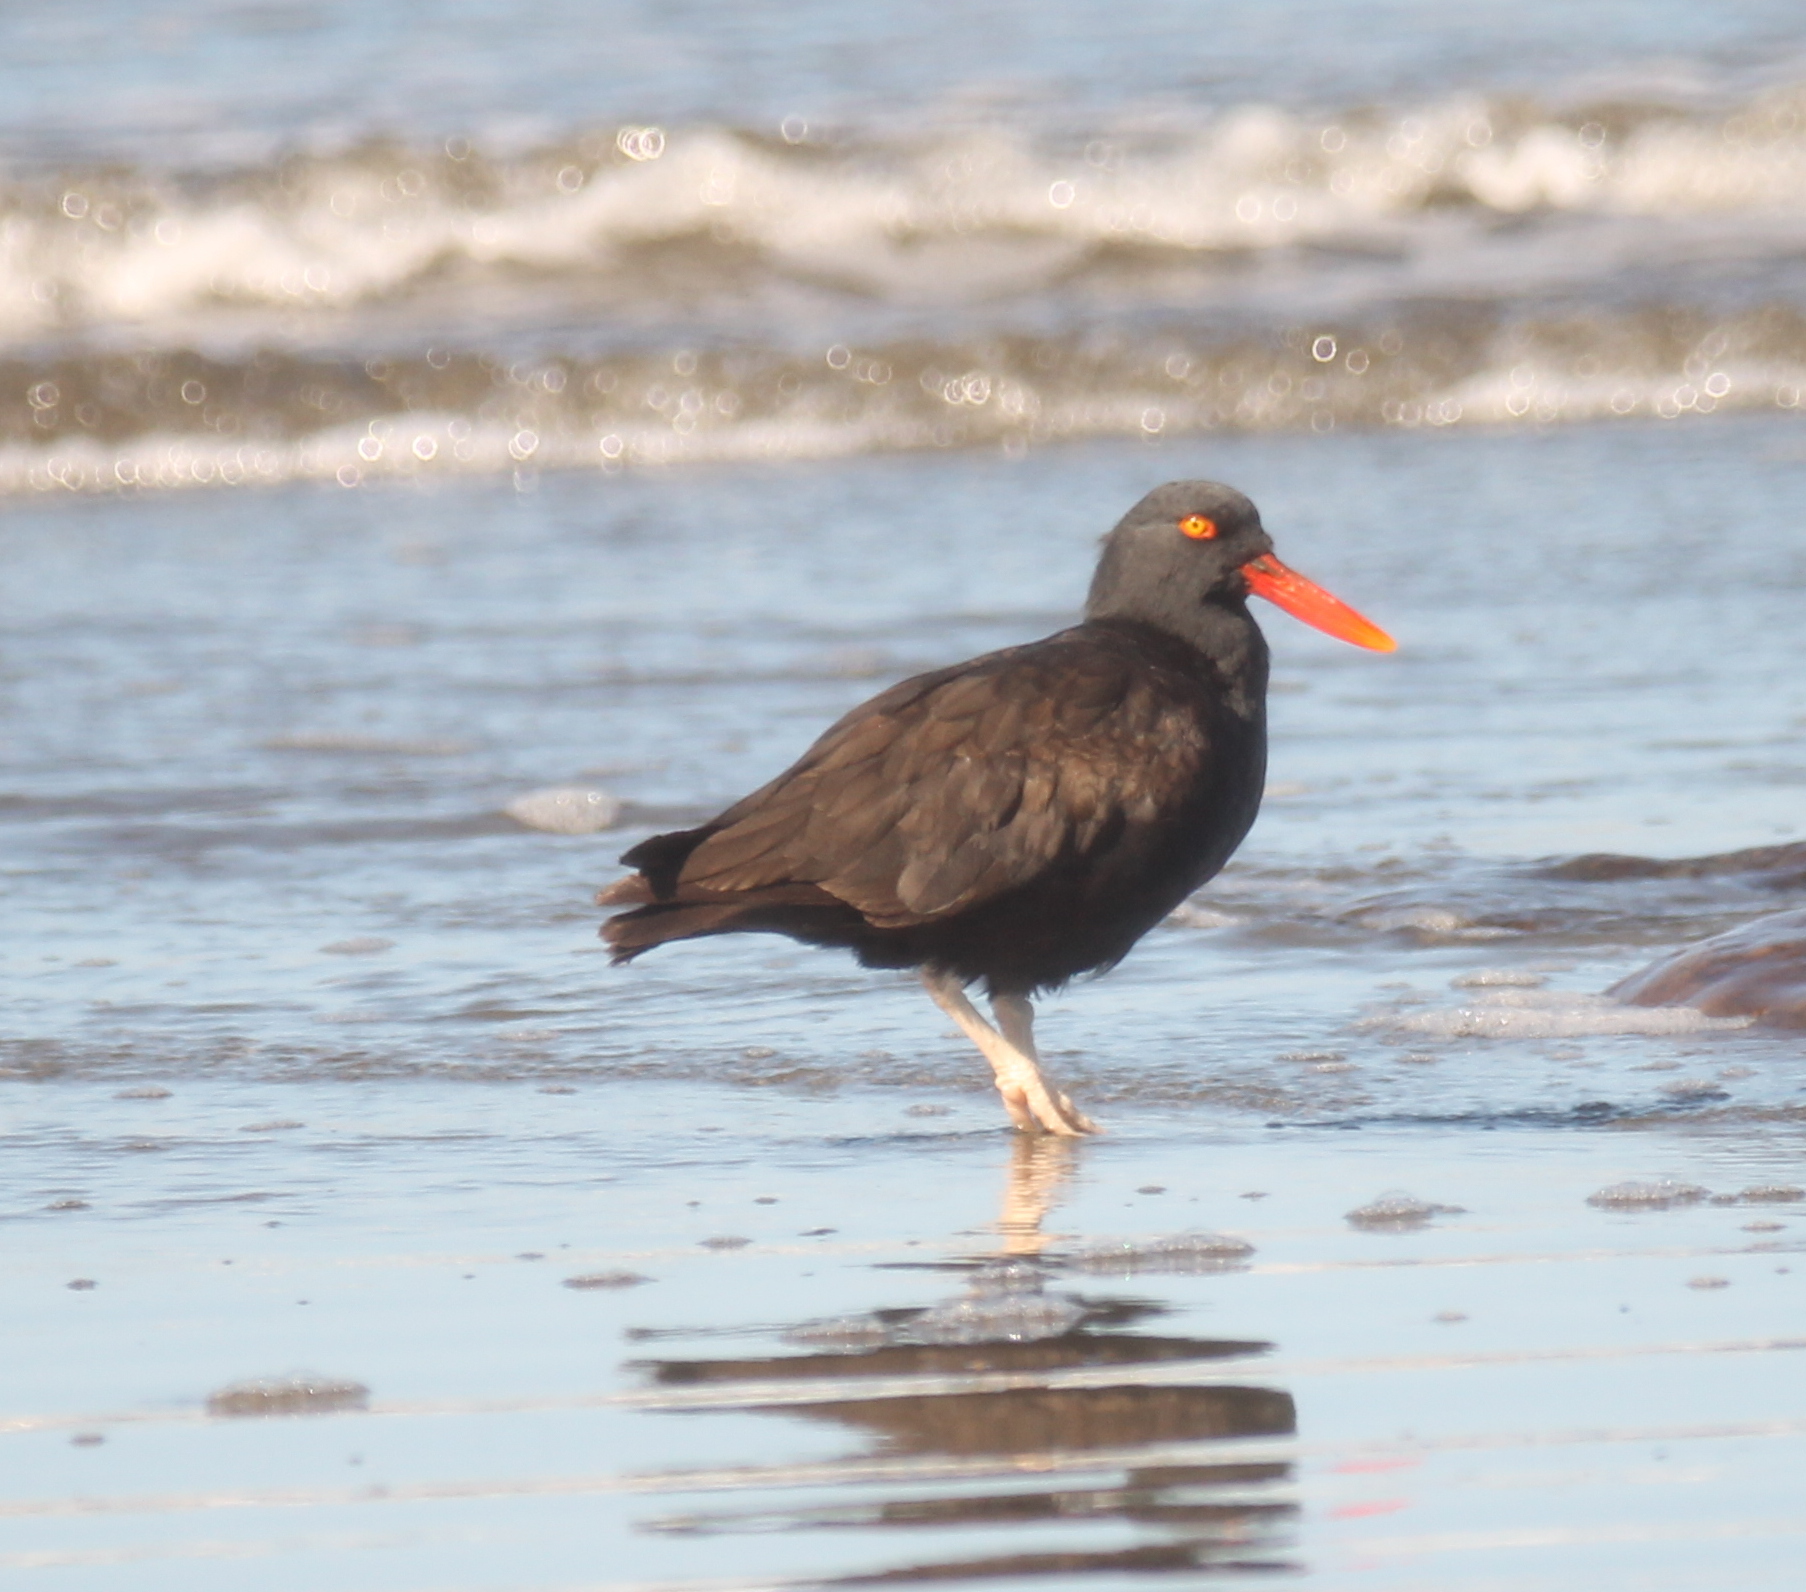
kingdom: Animalia
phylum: Chordata
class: Aves
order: Charadriiformes
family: Haematopodidae
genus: Haematopus
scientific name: Haematopus ater
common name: Blackish oystercatcher
